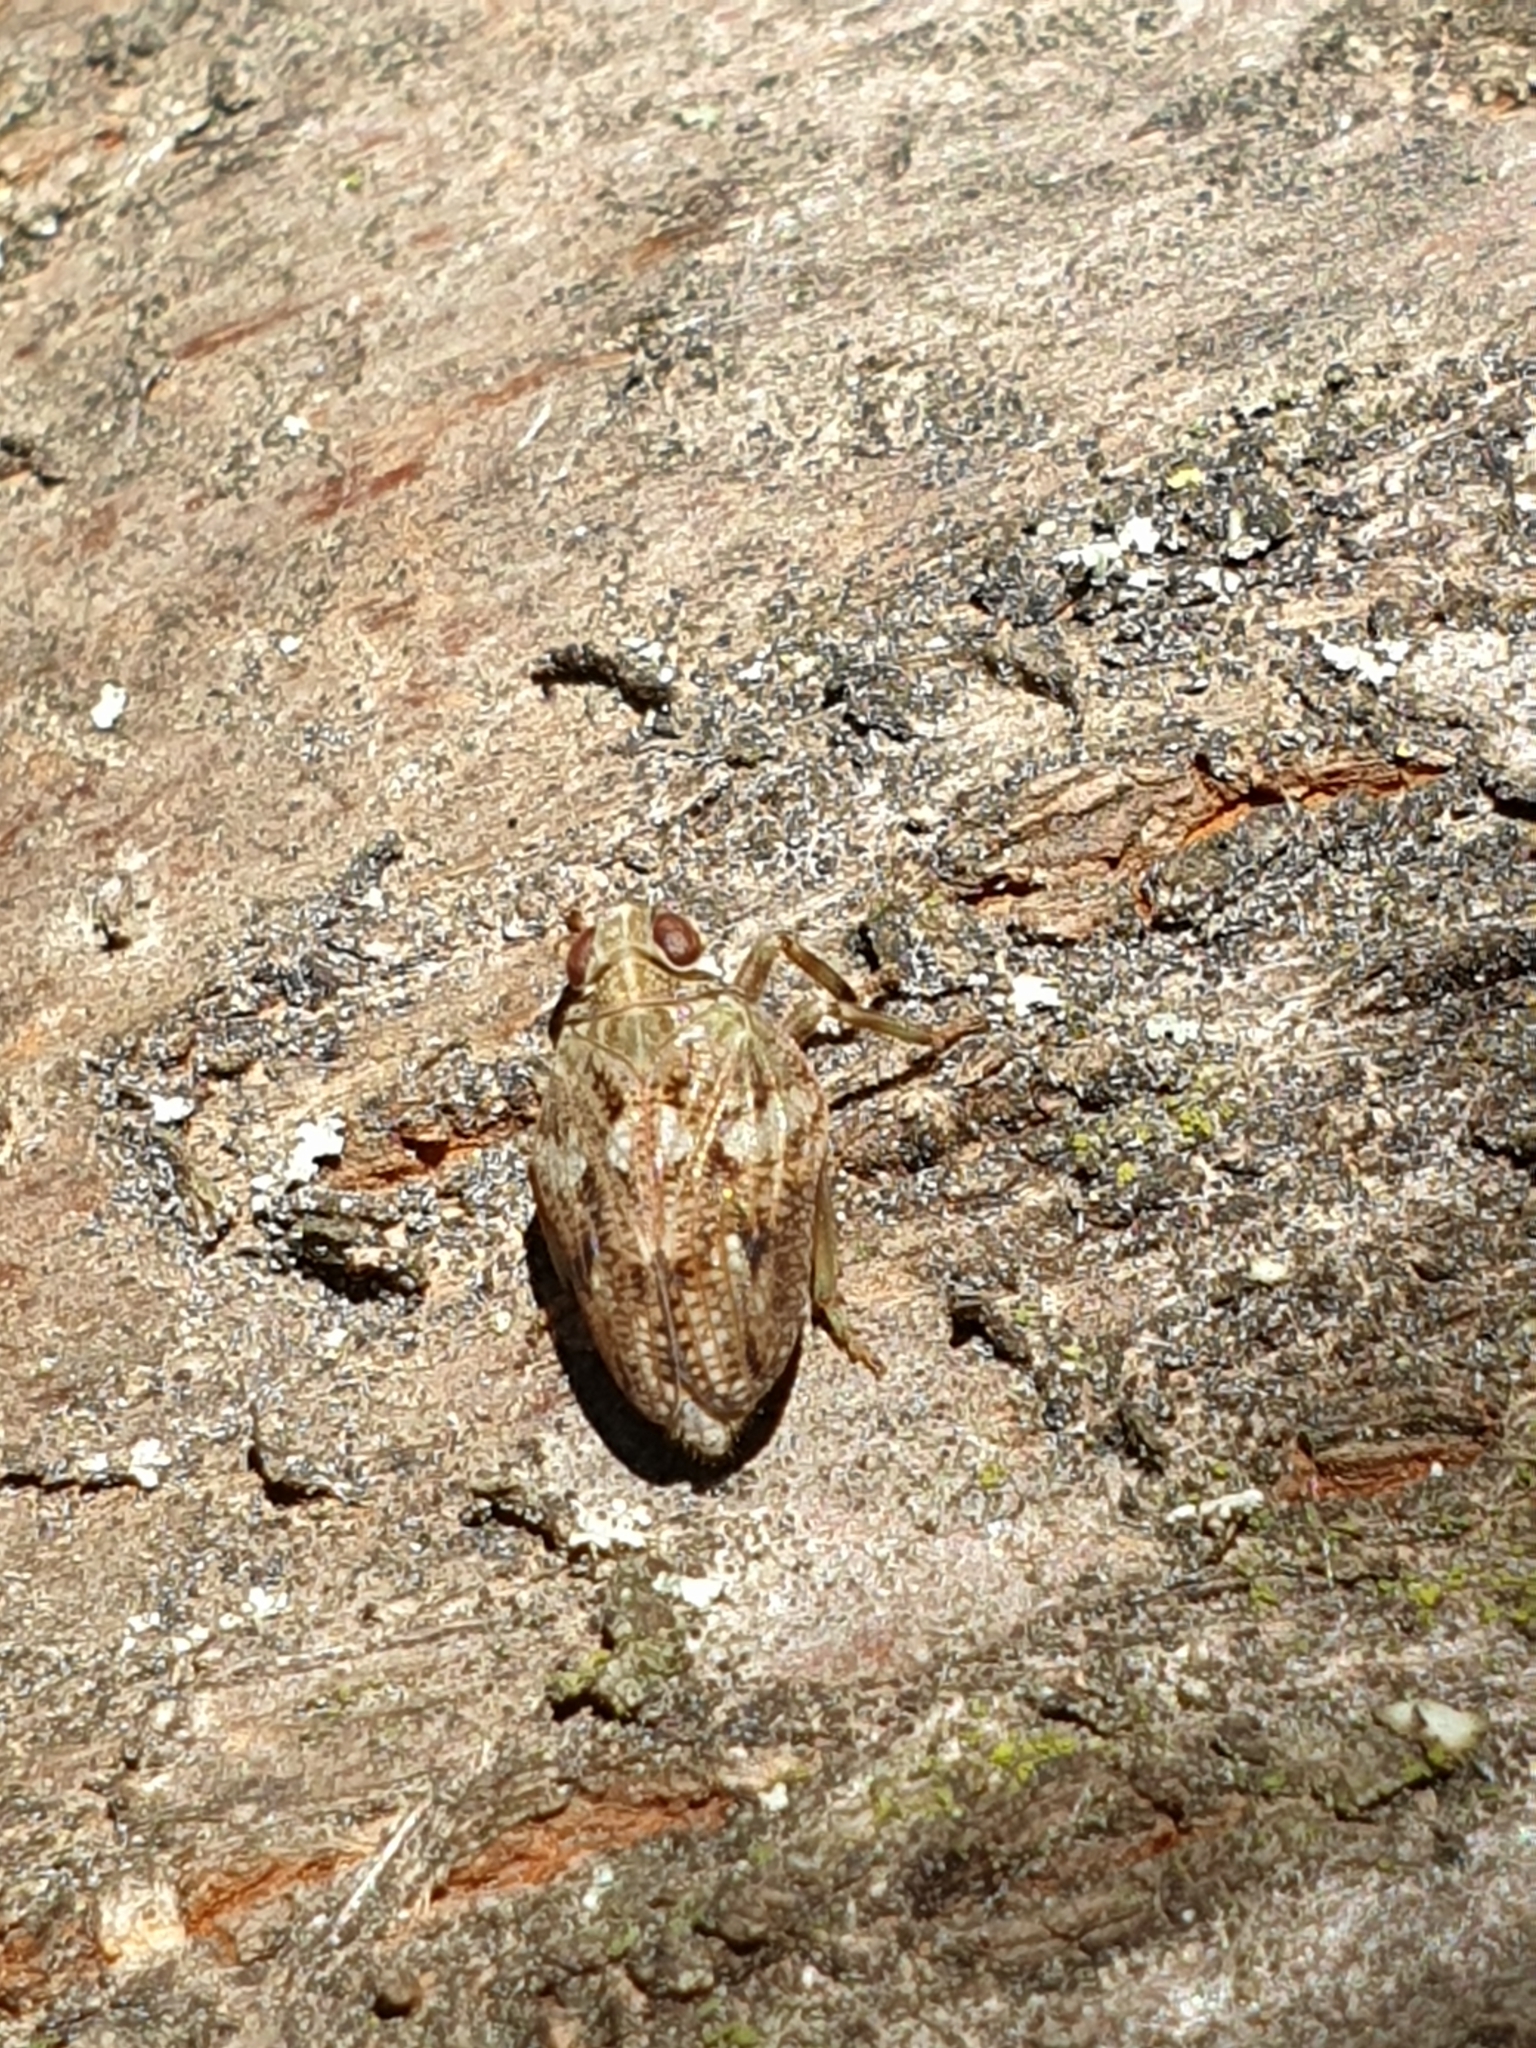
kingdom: Animalia
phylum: Arthropoda
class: Insecta
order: Hemiptera
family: Issidae
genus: Issus
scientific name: Issus coleoptratus
